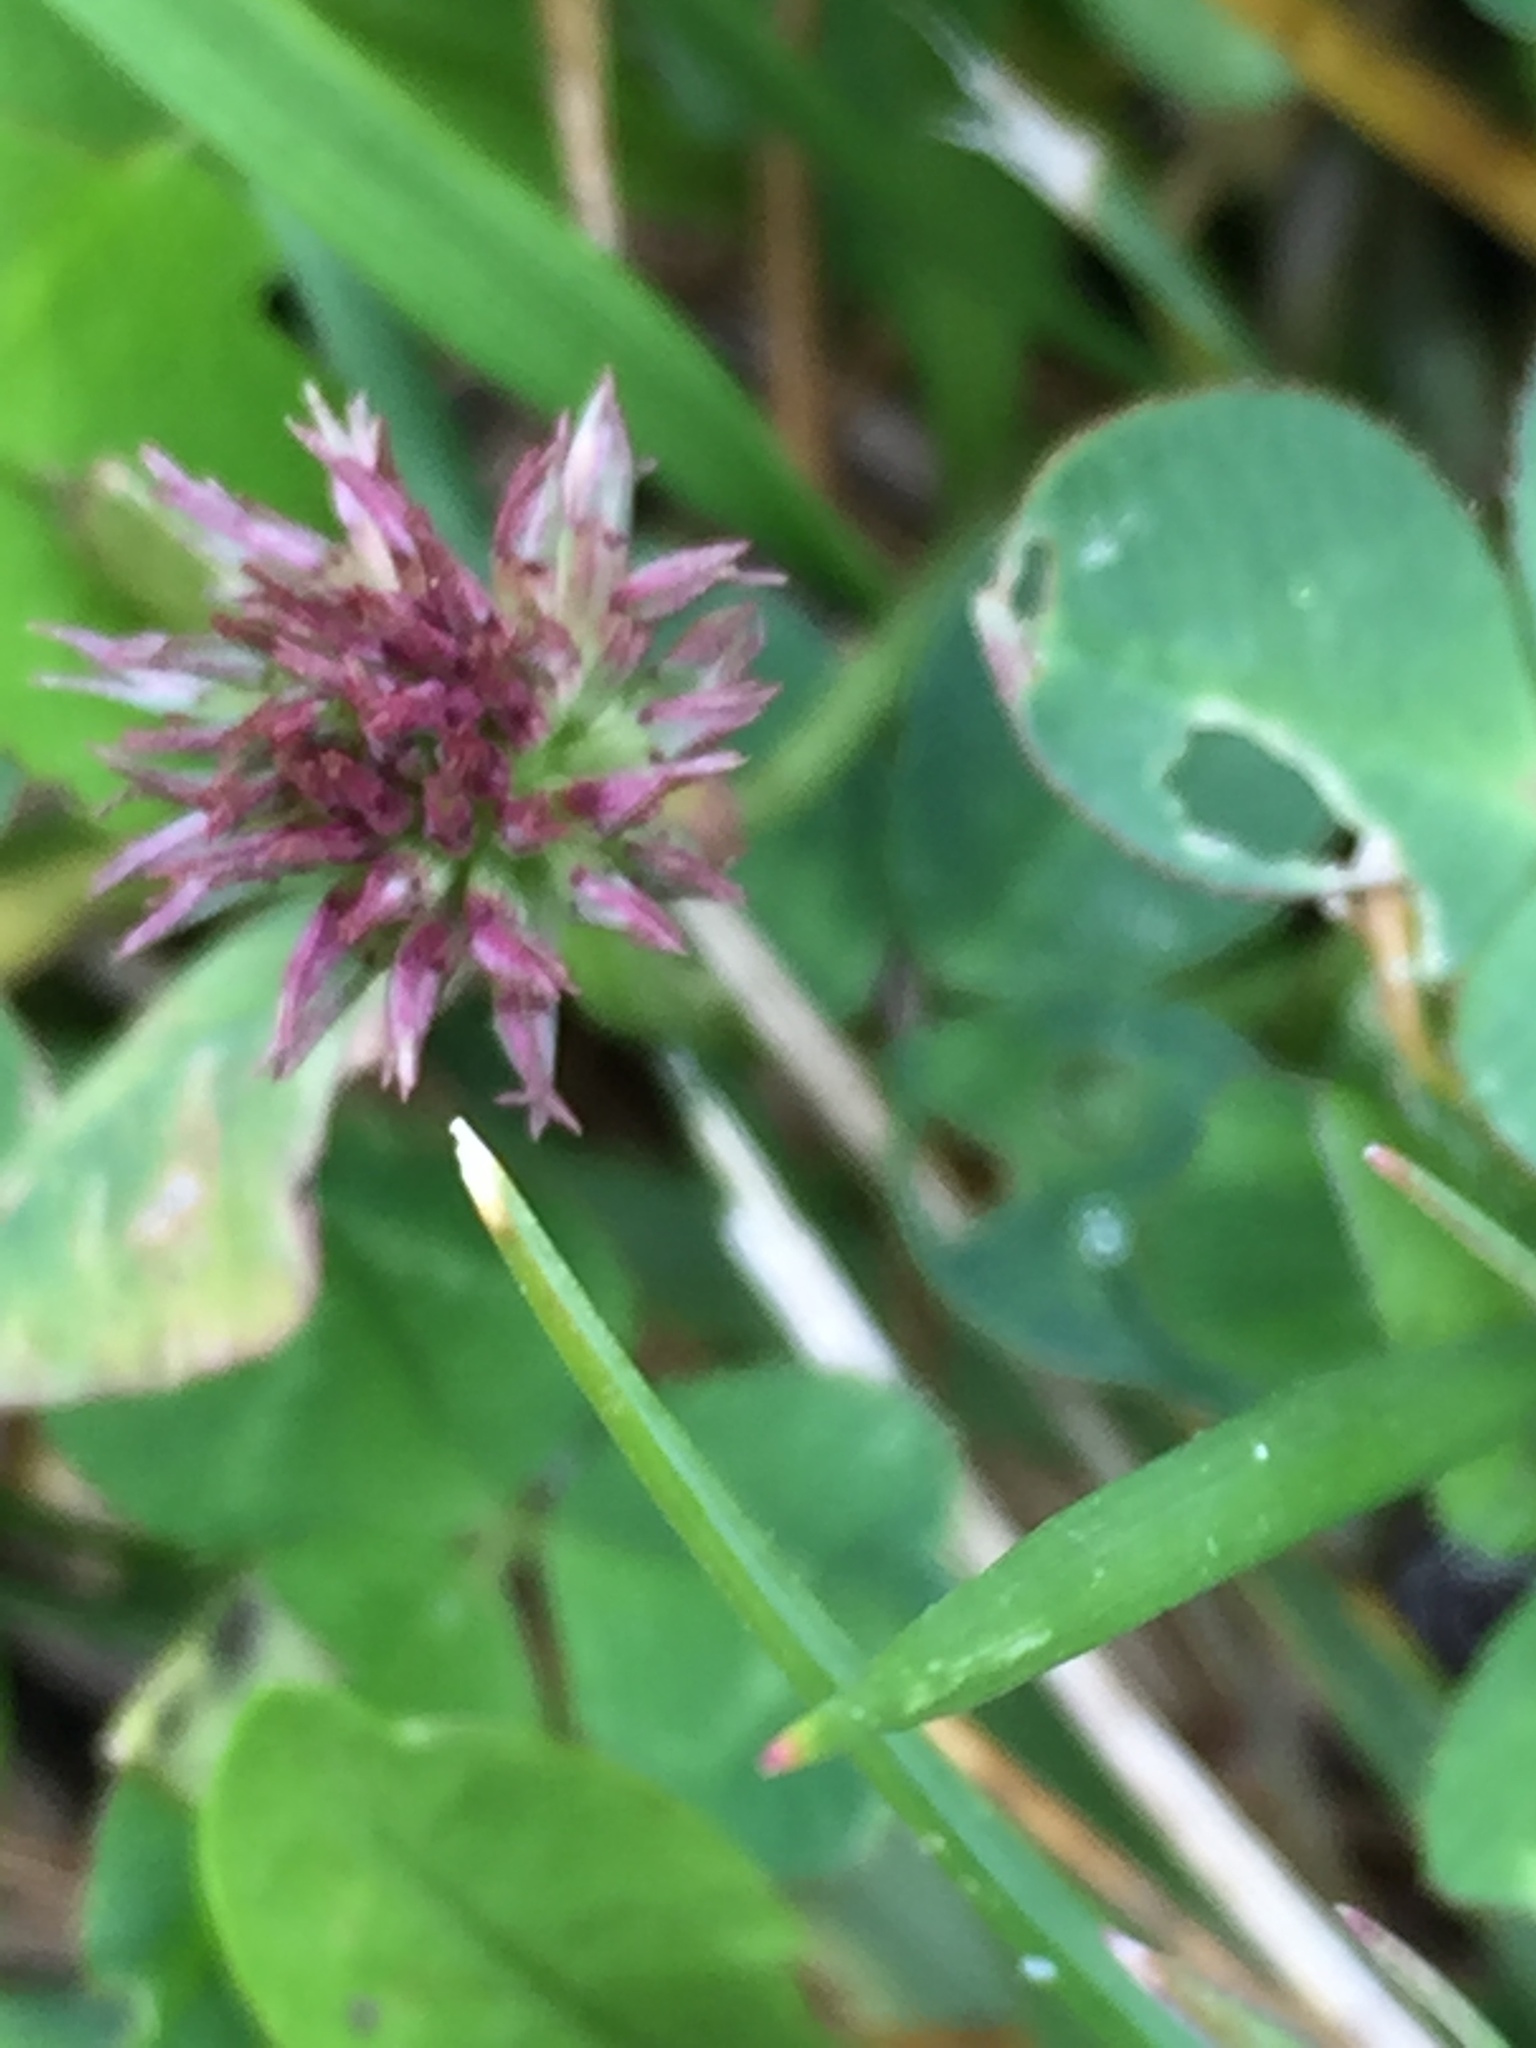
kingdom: Plantae
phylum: Tracheophyta
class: Magnoliopsida
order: Fabales
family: Fabaceae
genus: Trifolium
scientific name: Trifolium repens
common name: White clover
